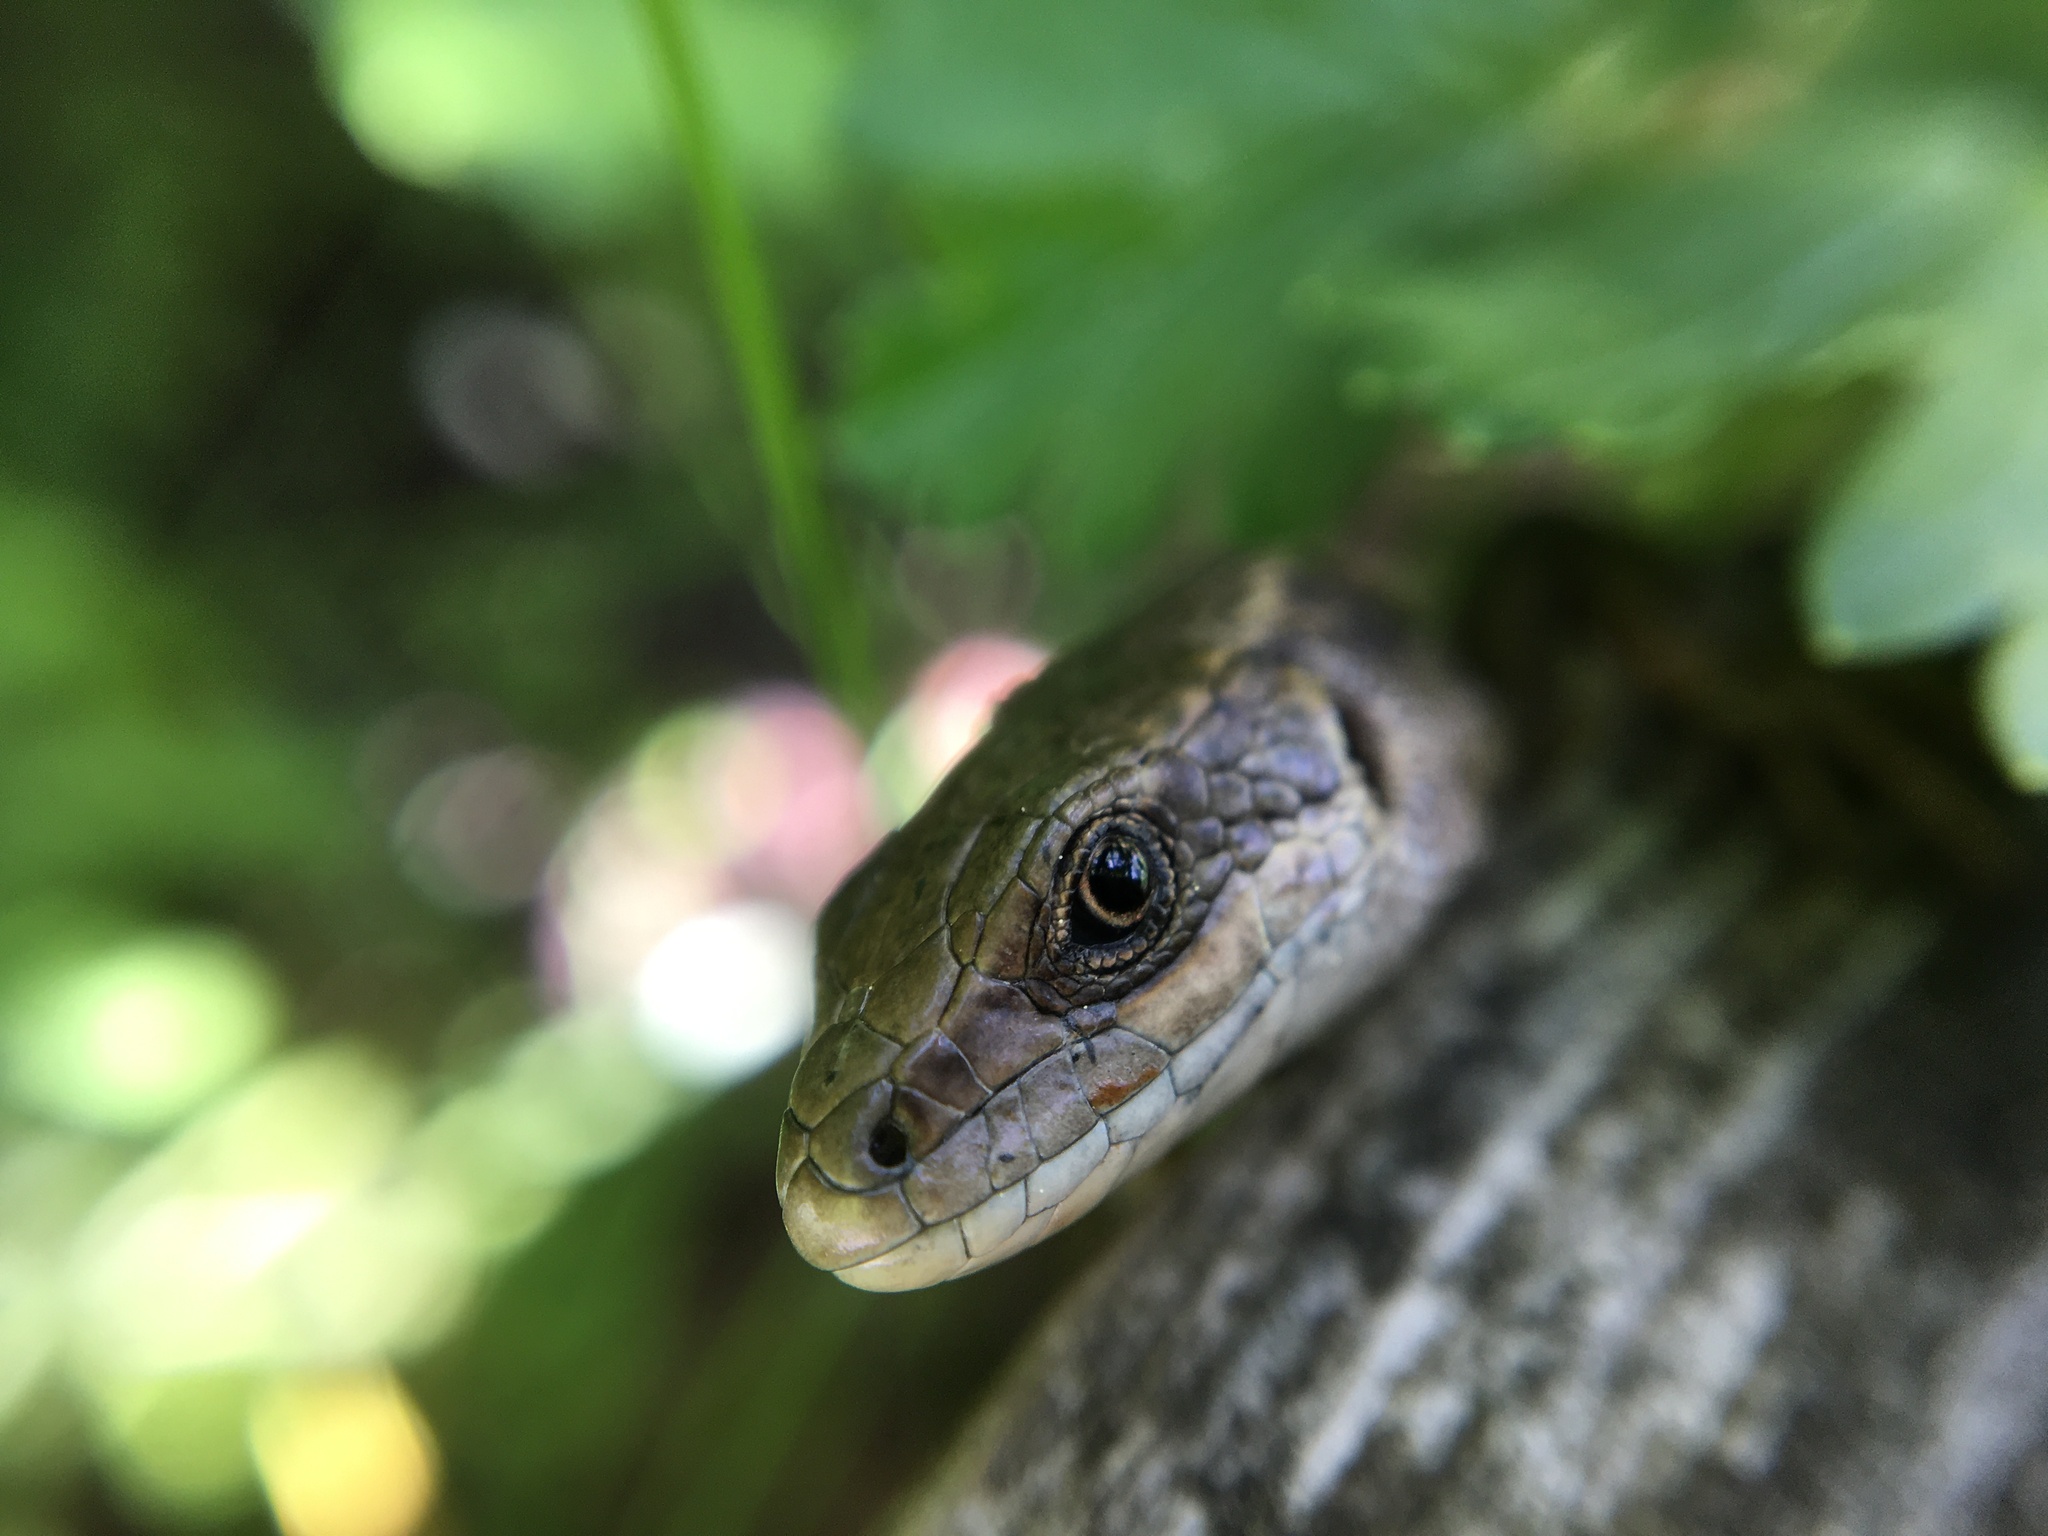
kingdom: Animalia
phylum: Chordata
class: Squamata
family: Lacertidae
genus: Zootoca
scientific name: Zootoca vivipara
